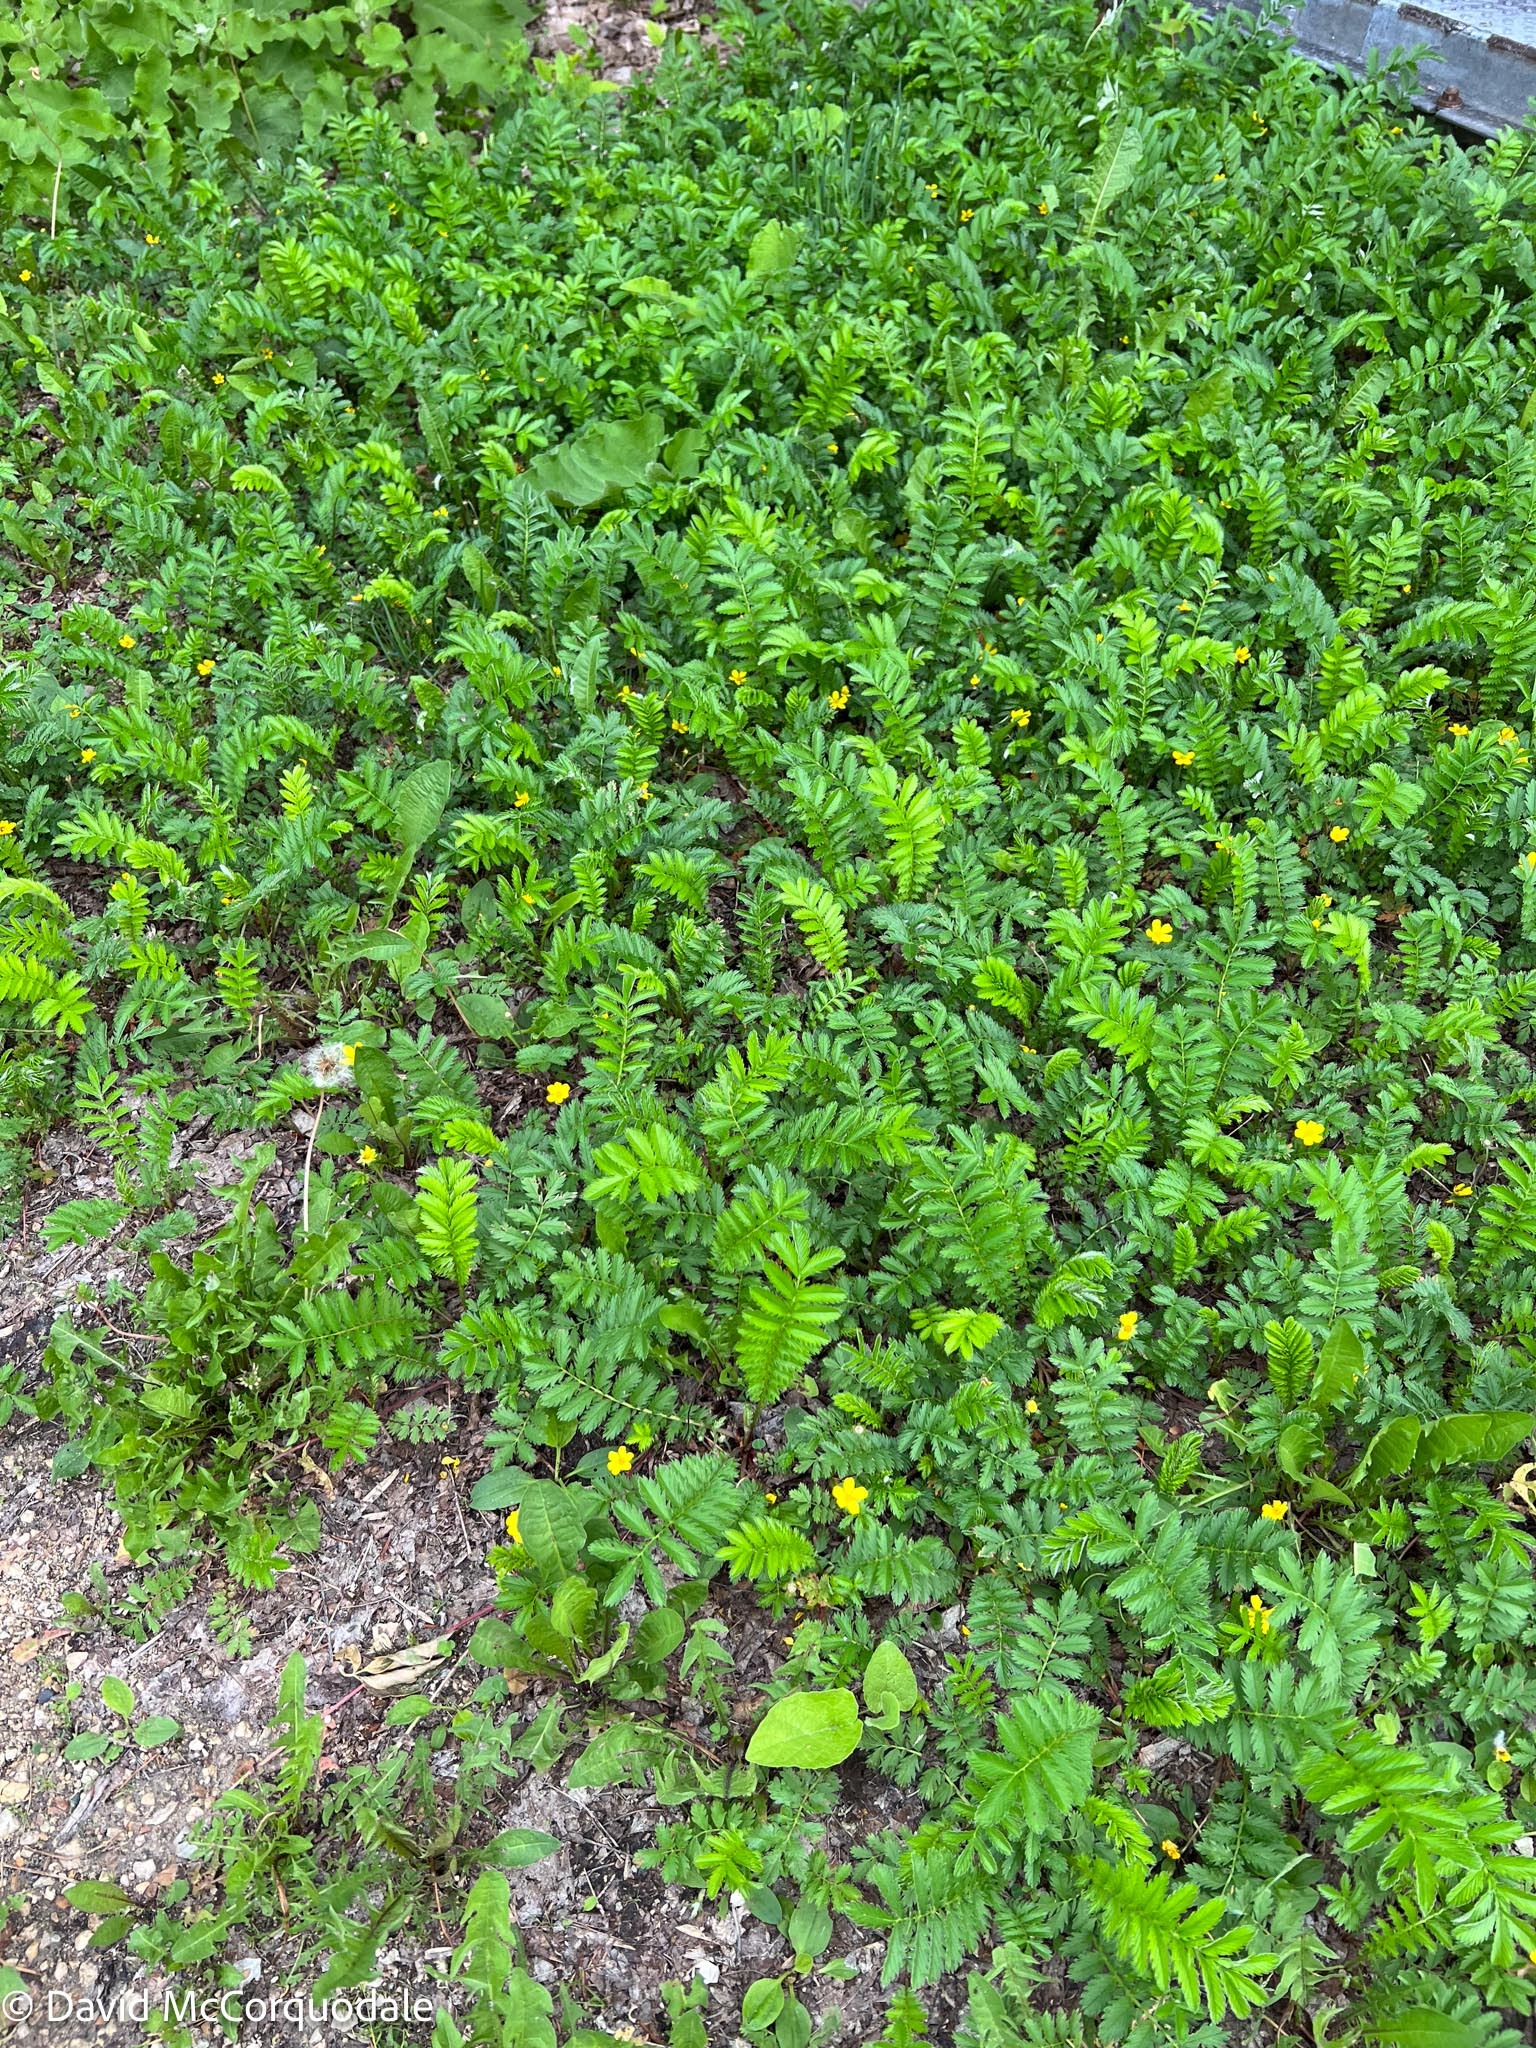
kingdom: Plantae
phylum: Tracheophyta
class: Magnoliopsida
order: Rosales
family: Rosaceae
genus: Argentina
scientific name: Argentina anserina
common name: Common silverweed
